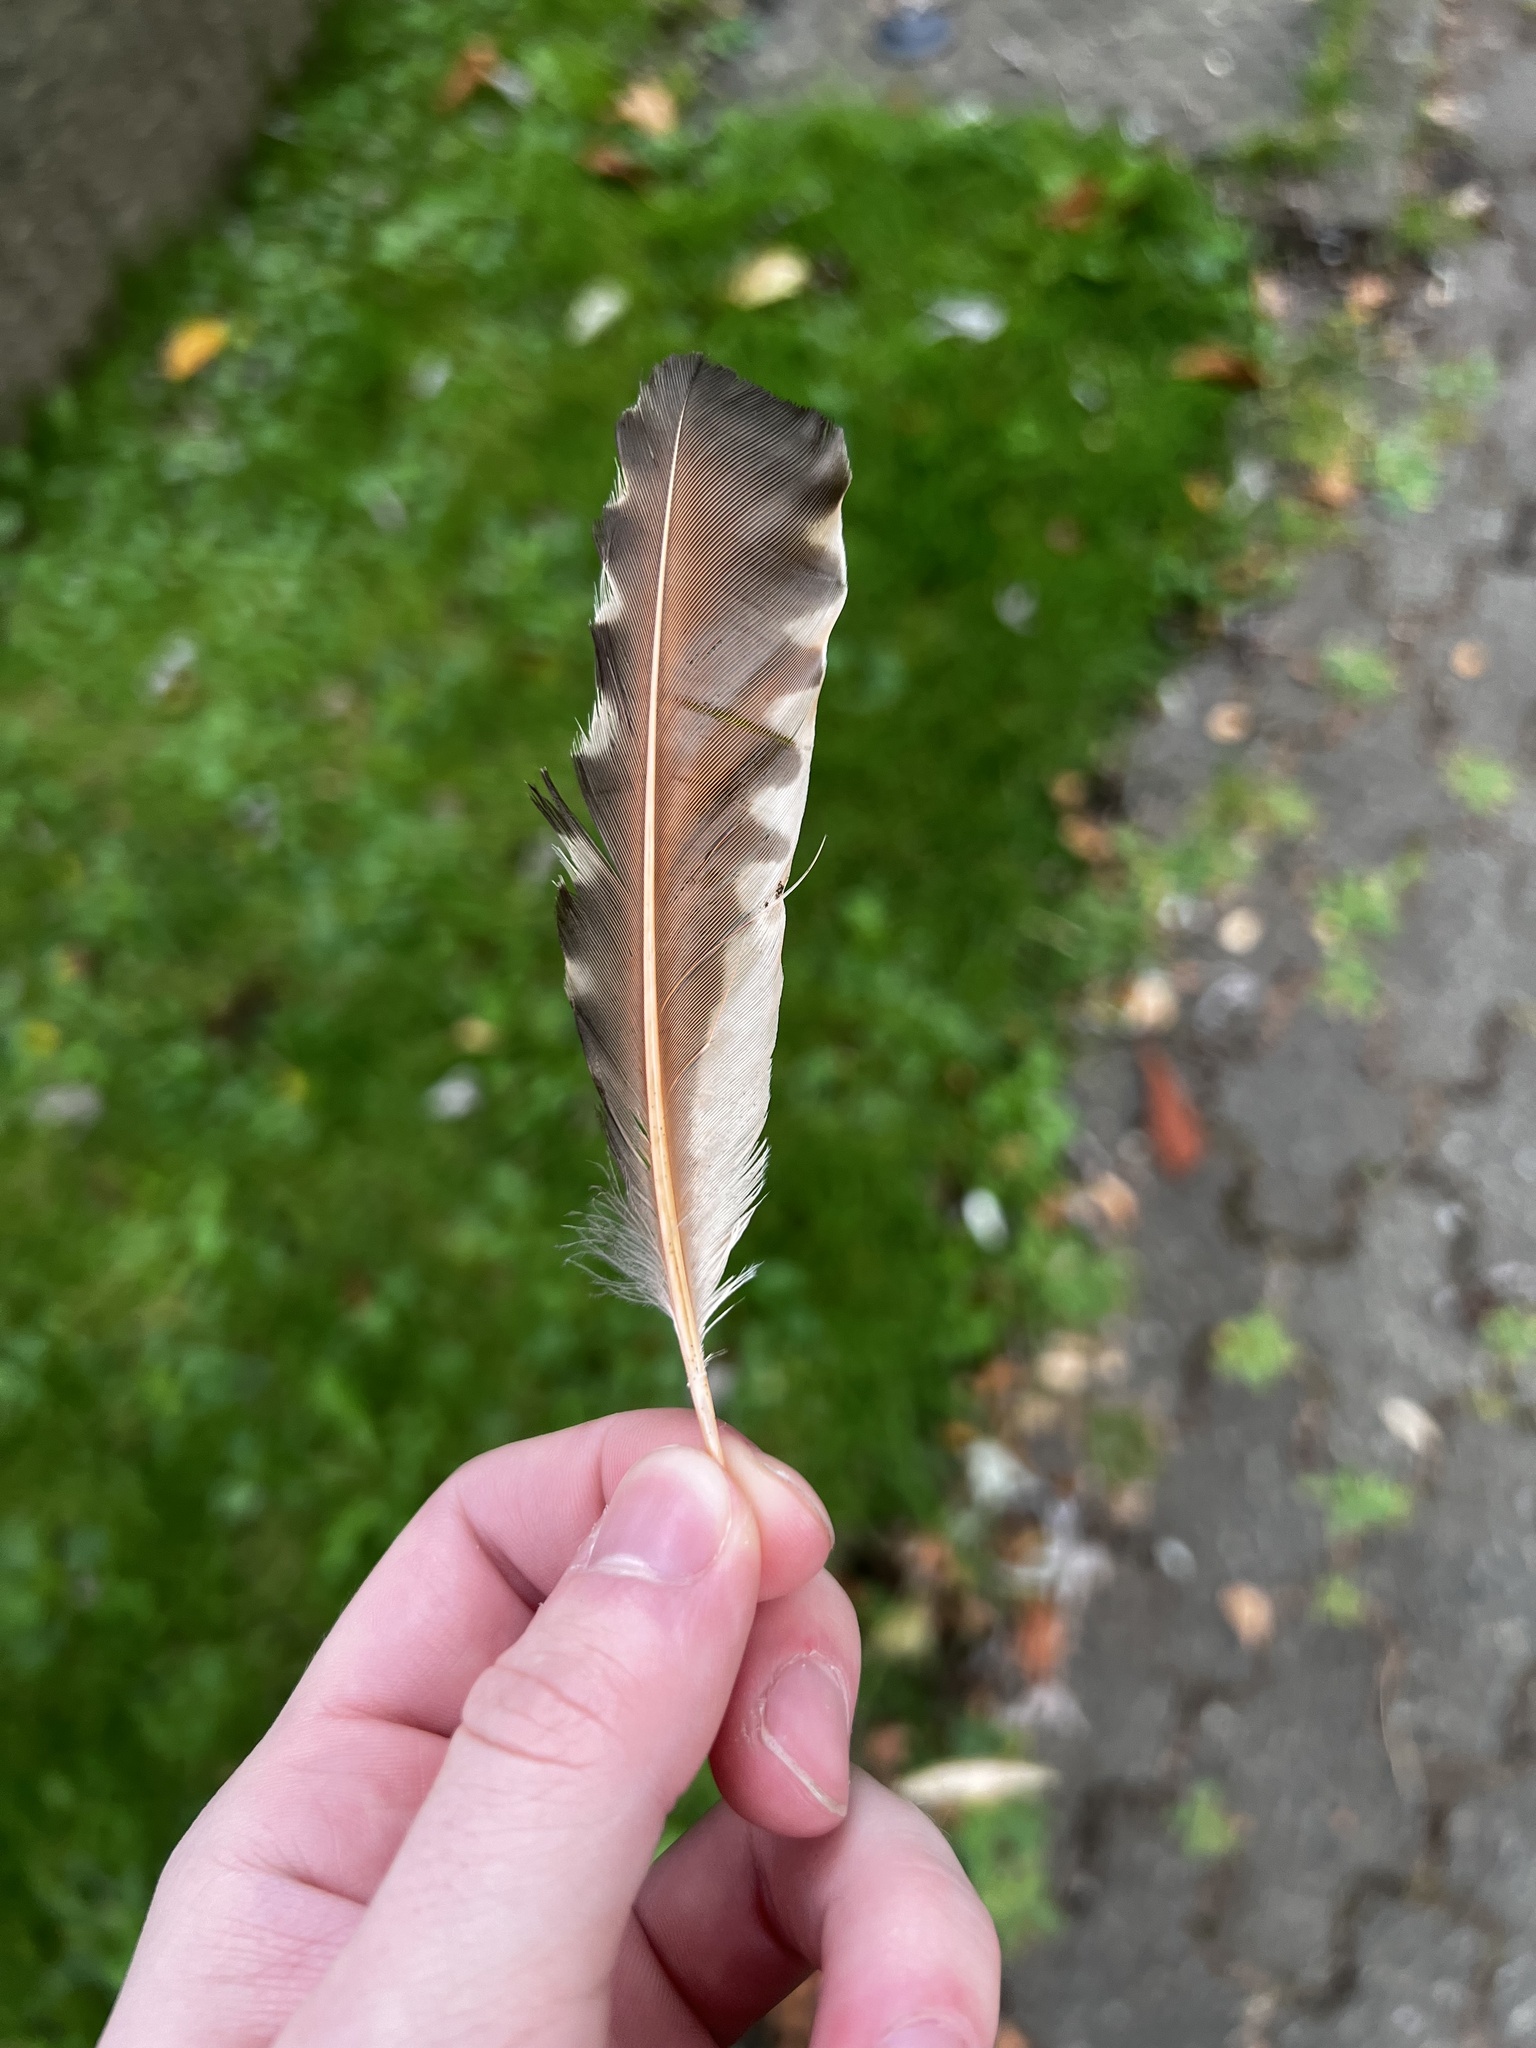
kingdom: Animalia
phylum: Chordata
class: Aves
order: Piciformes
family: Picidae
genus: Colaptes
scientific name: Colaptes auratus
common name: Northern flicker
